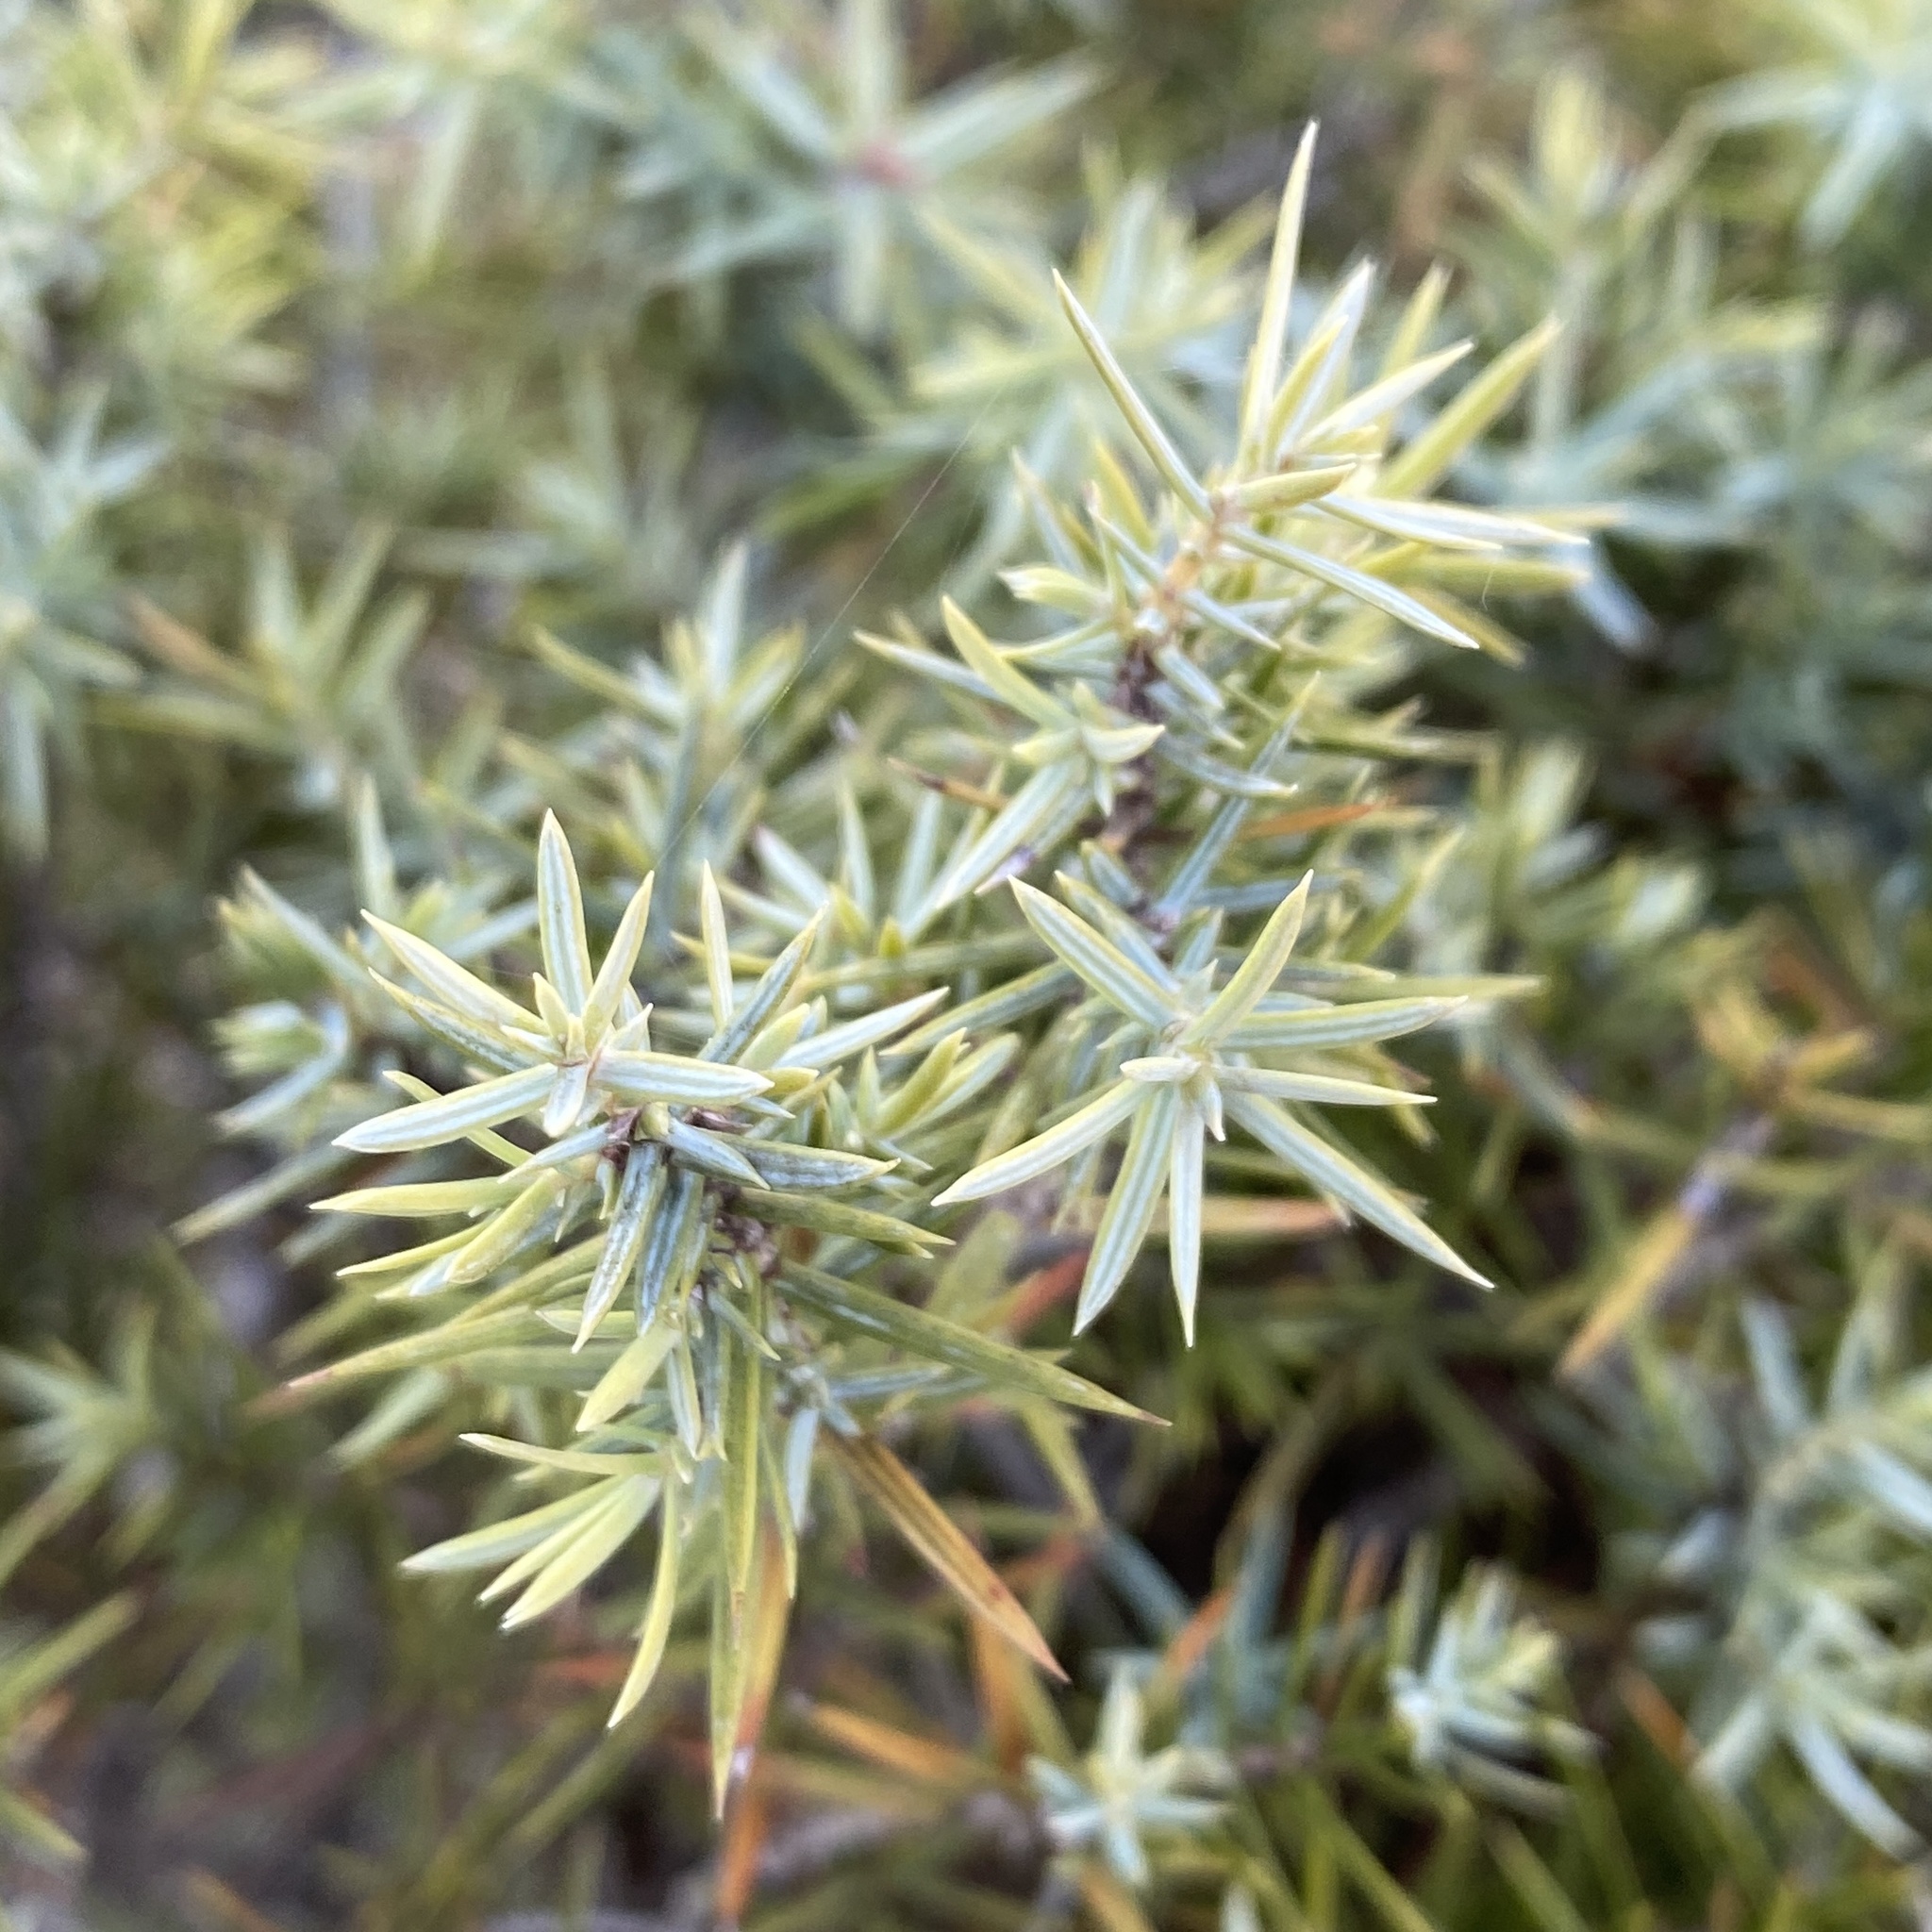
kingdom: Plantae
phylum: Tracheophyta
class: Pinopsida
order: Pinales
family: Cupressaceae
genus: Juniperus
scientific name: Juniperus oxycedrus
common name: Prickly juniper
